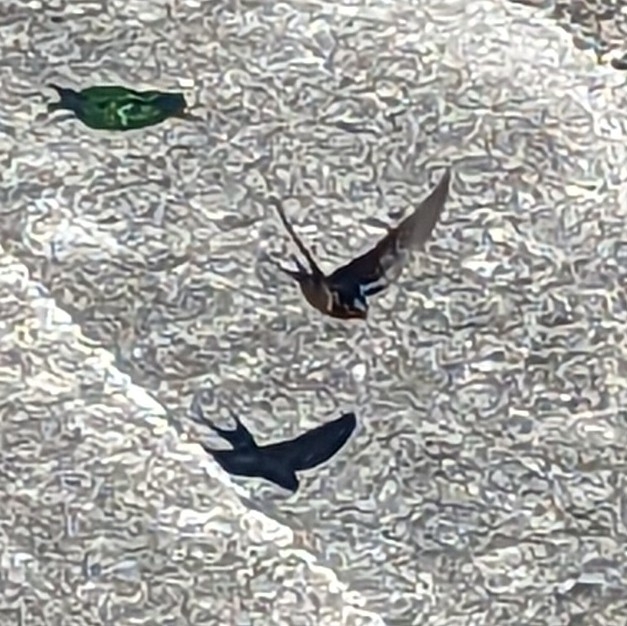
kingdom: Animalia
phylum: Chordata
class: Aves
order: Passeriformes
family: Hirundinidae
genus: Hirundo
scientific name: Hirundo rustica
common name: Barn swallow
